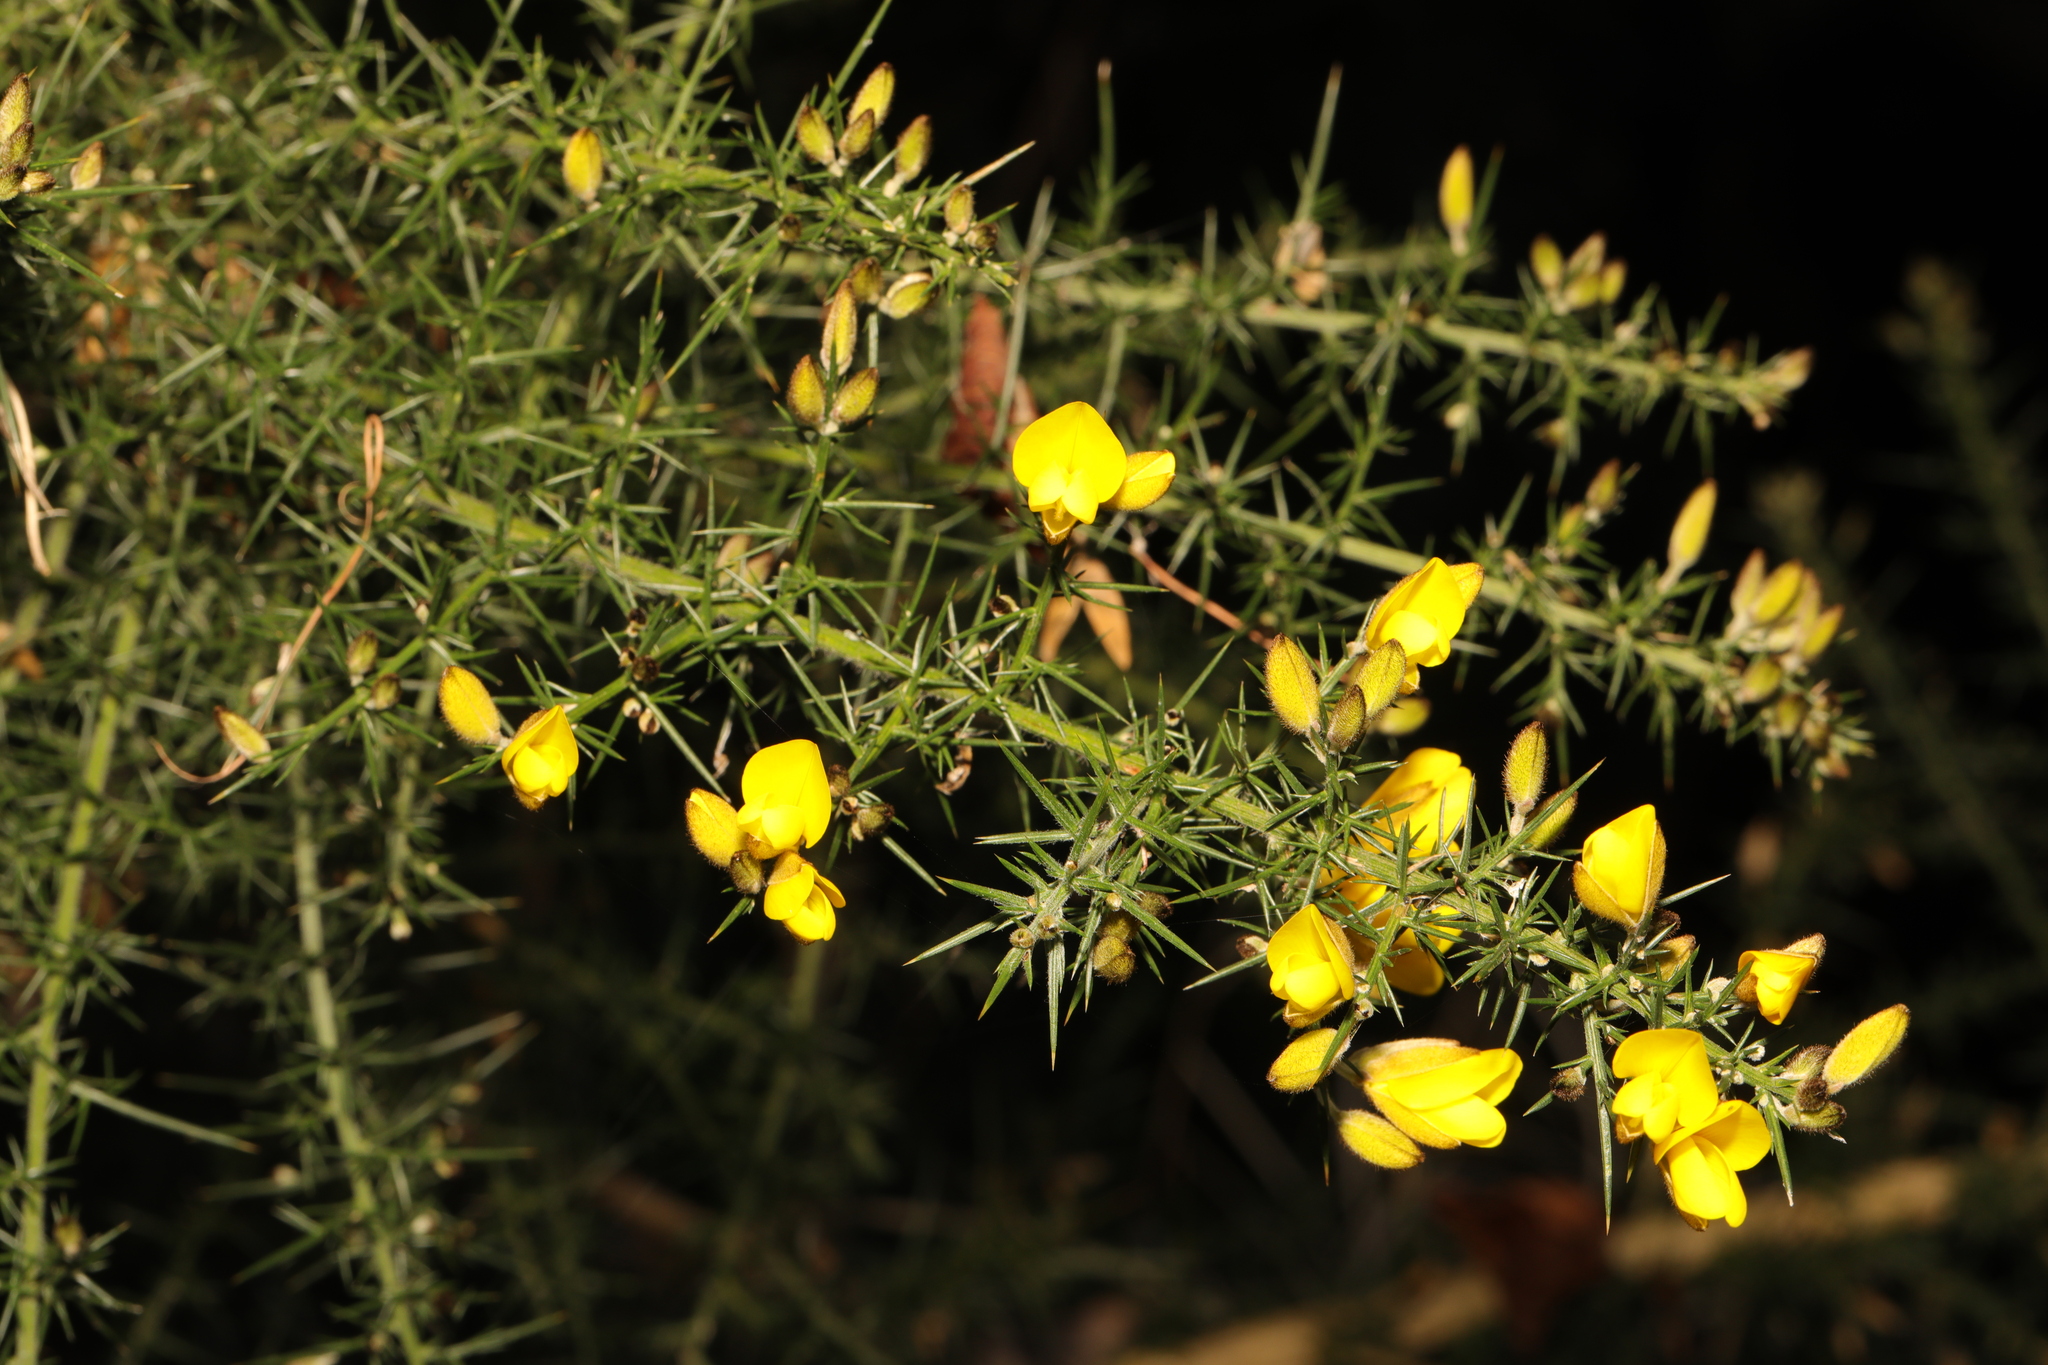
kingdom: Plantae
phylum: Tracheophyta
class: Magnoliopsida
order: Fabales
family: Fabaceae
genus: Ulex
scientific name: Ulex europaeus
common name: Common gorse
